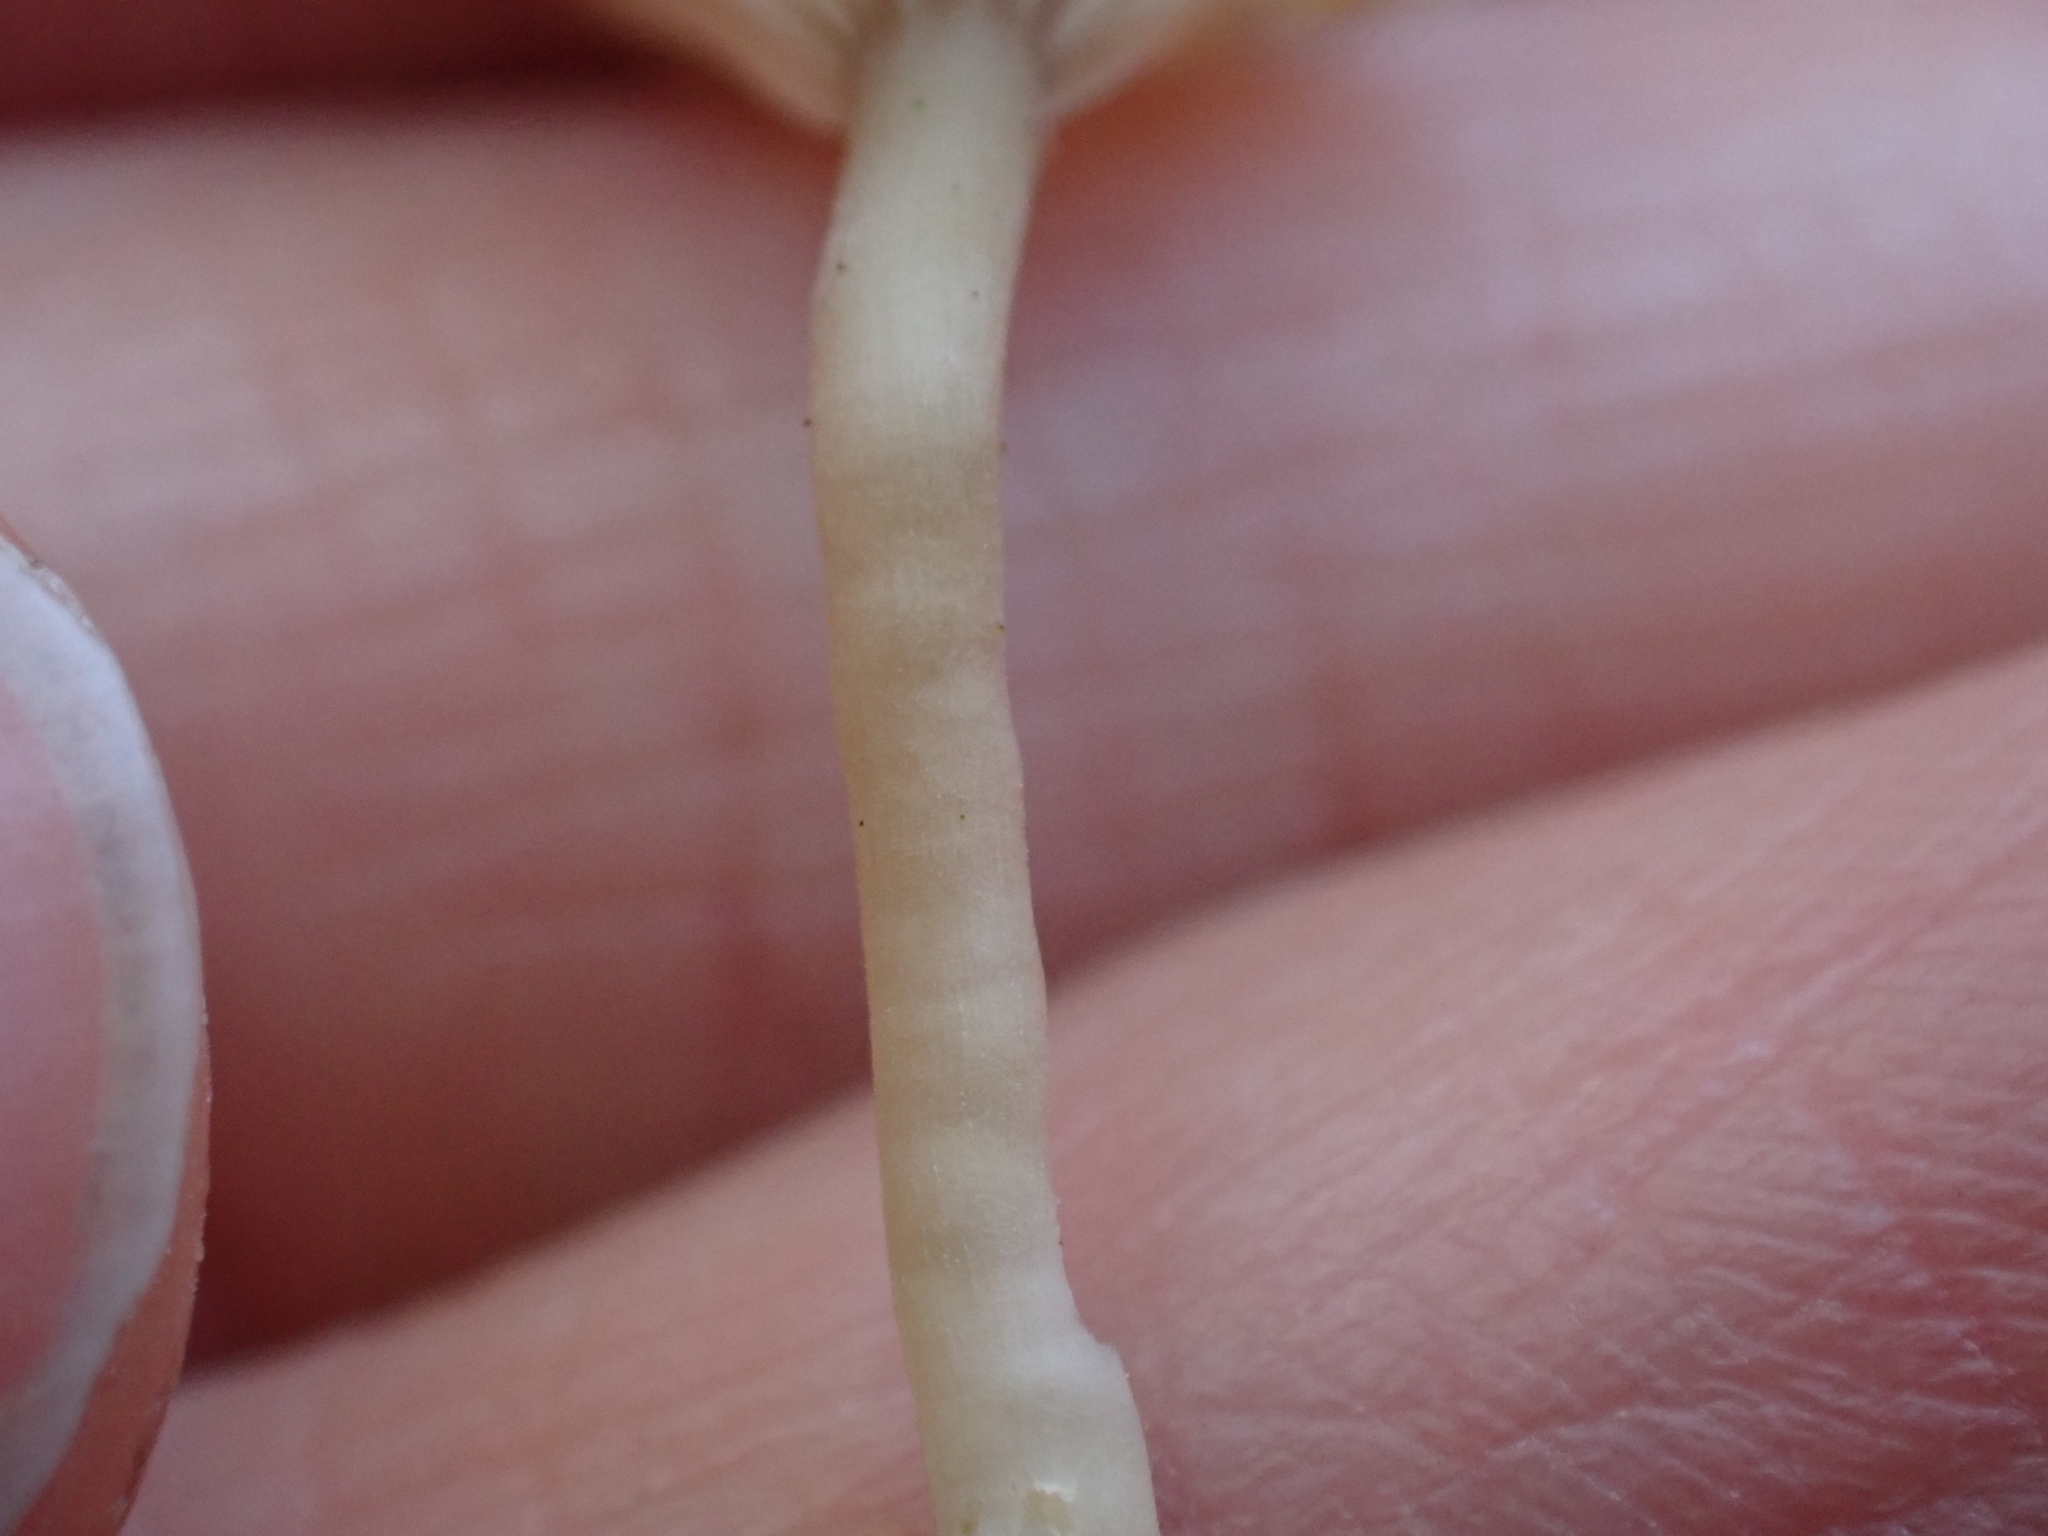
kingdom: Fungi
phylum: Basidiomycota
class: Agaricomycetes
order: Agaricales
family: Hygrophoraceae
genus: Lichenomphalia
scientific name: Lichenomphalia
